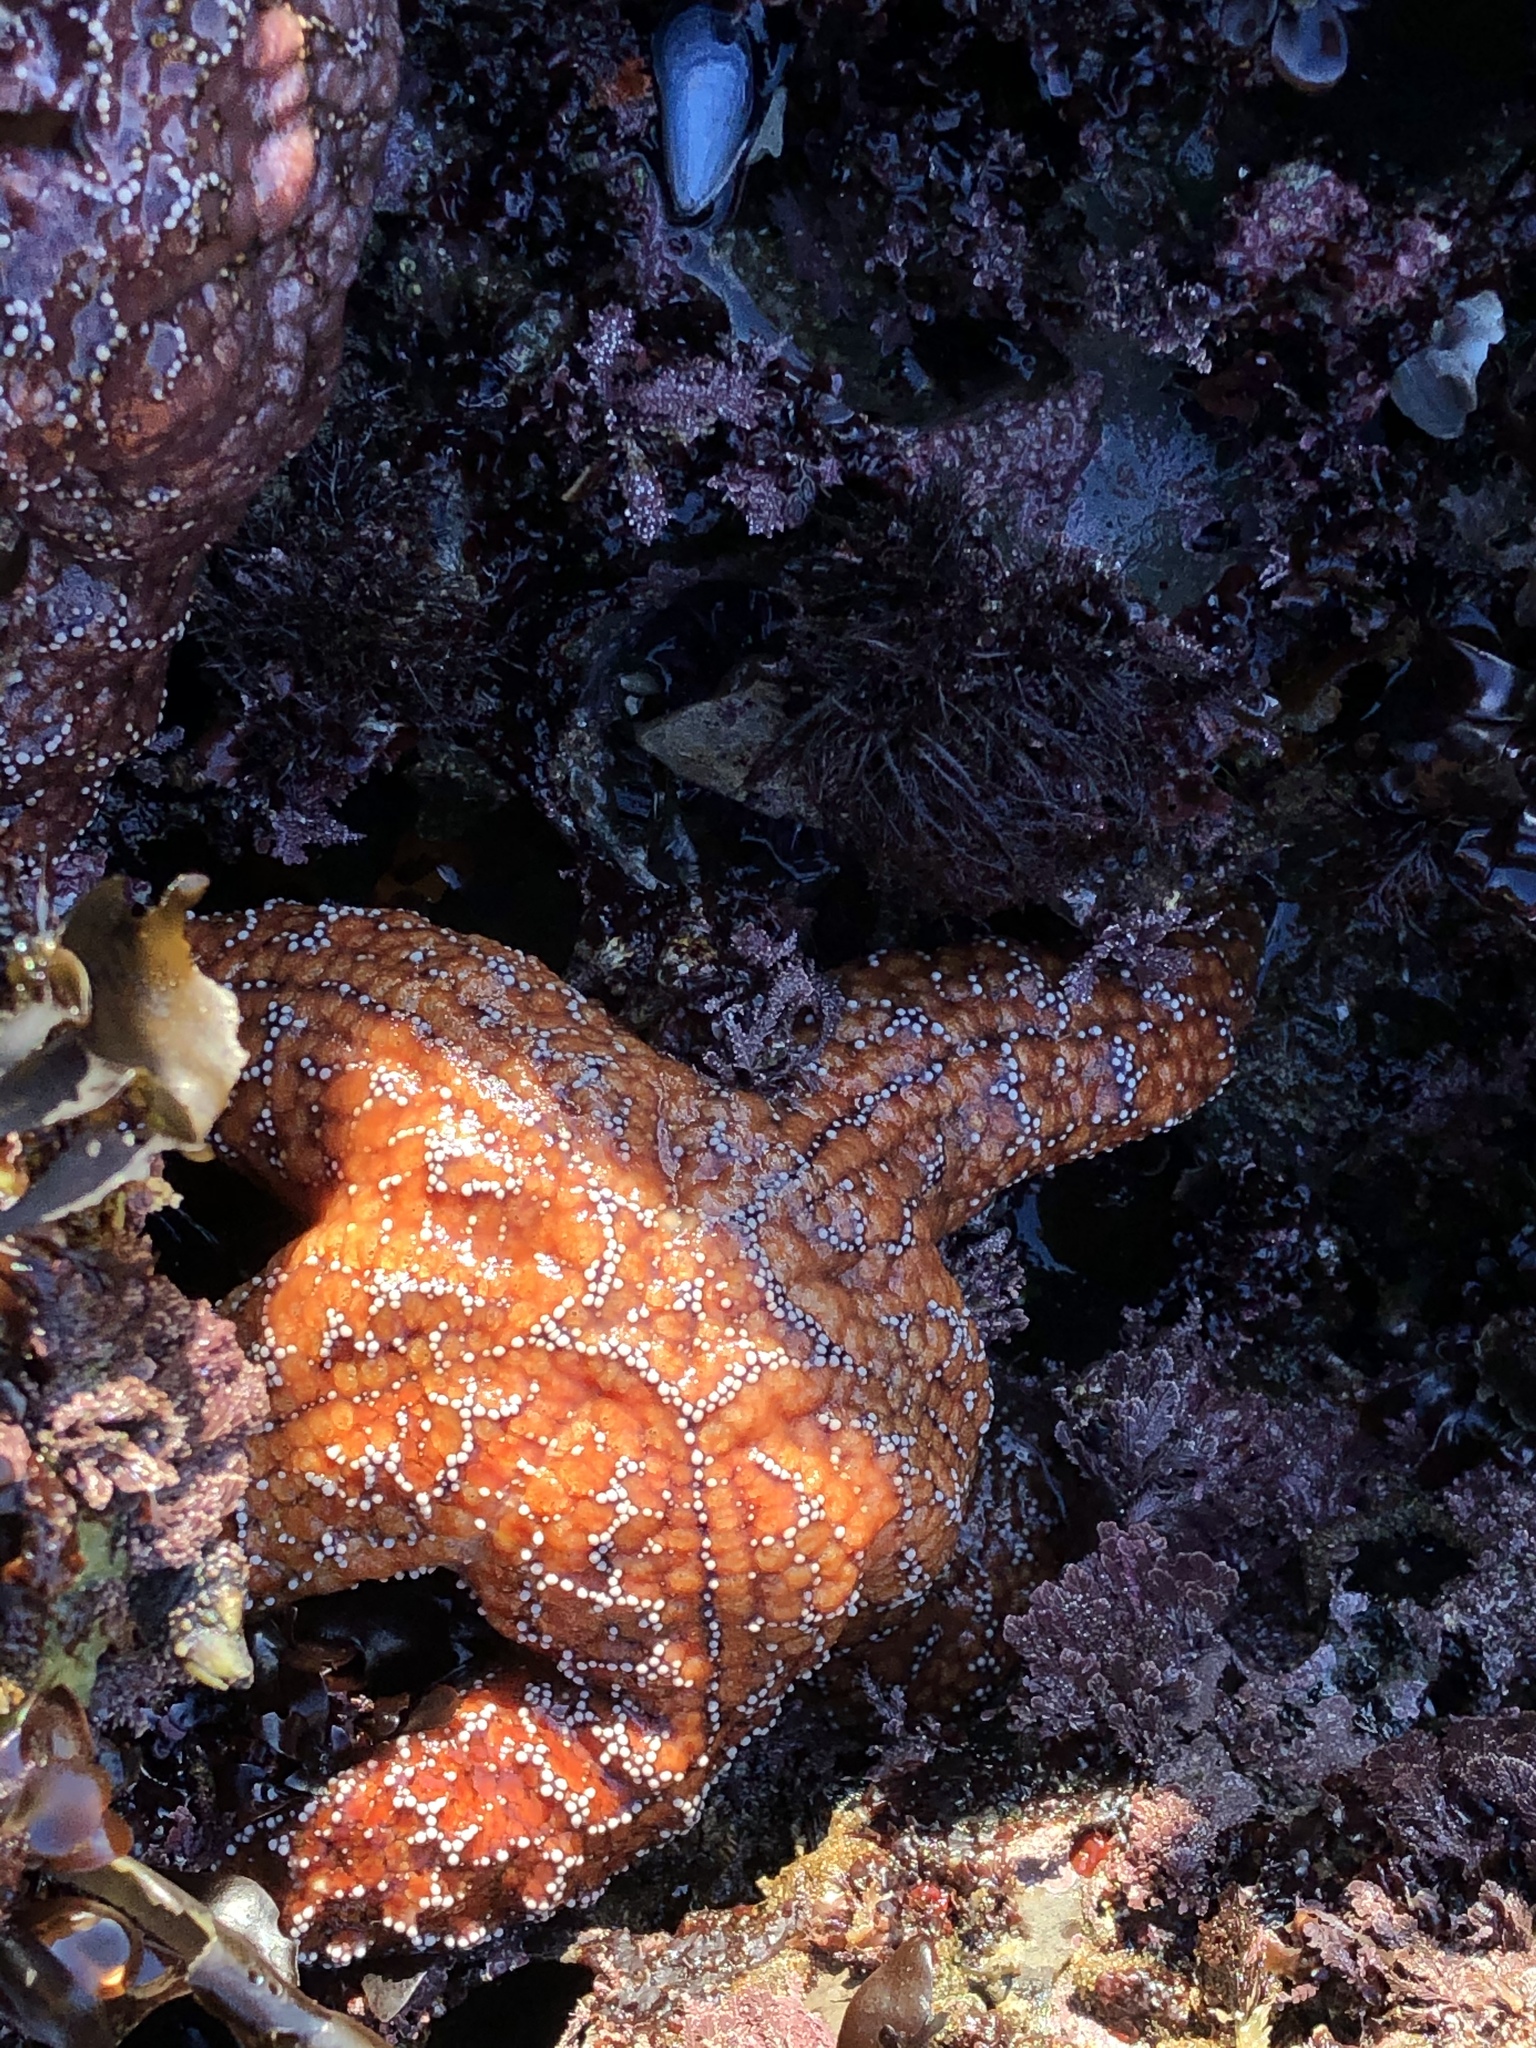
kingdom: Animalia
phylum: Echinodermata
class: Asteroidea
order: Forcipulatida
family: Asteriidae
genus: Pisaster
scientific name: Pisaster ochraceus
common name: Ochre stars
